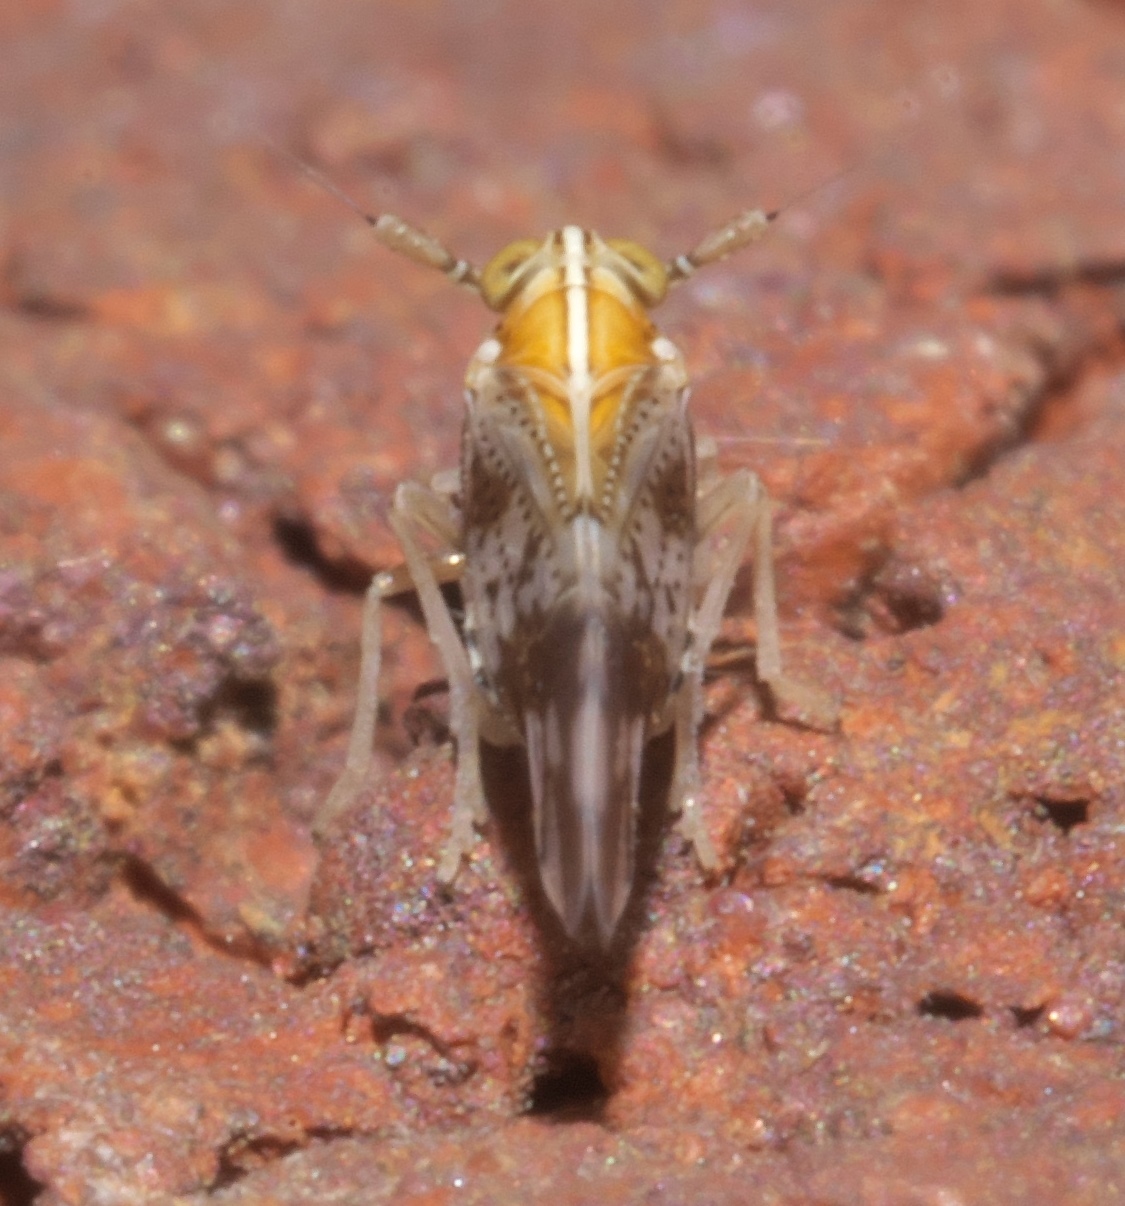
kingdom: Animalia
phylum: Arthropoda
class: Insecta
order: Hemiptera
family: Delphacidae
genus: Liburniella
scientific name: Liburniella ornata
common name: Ornate planthopper
